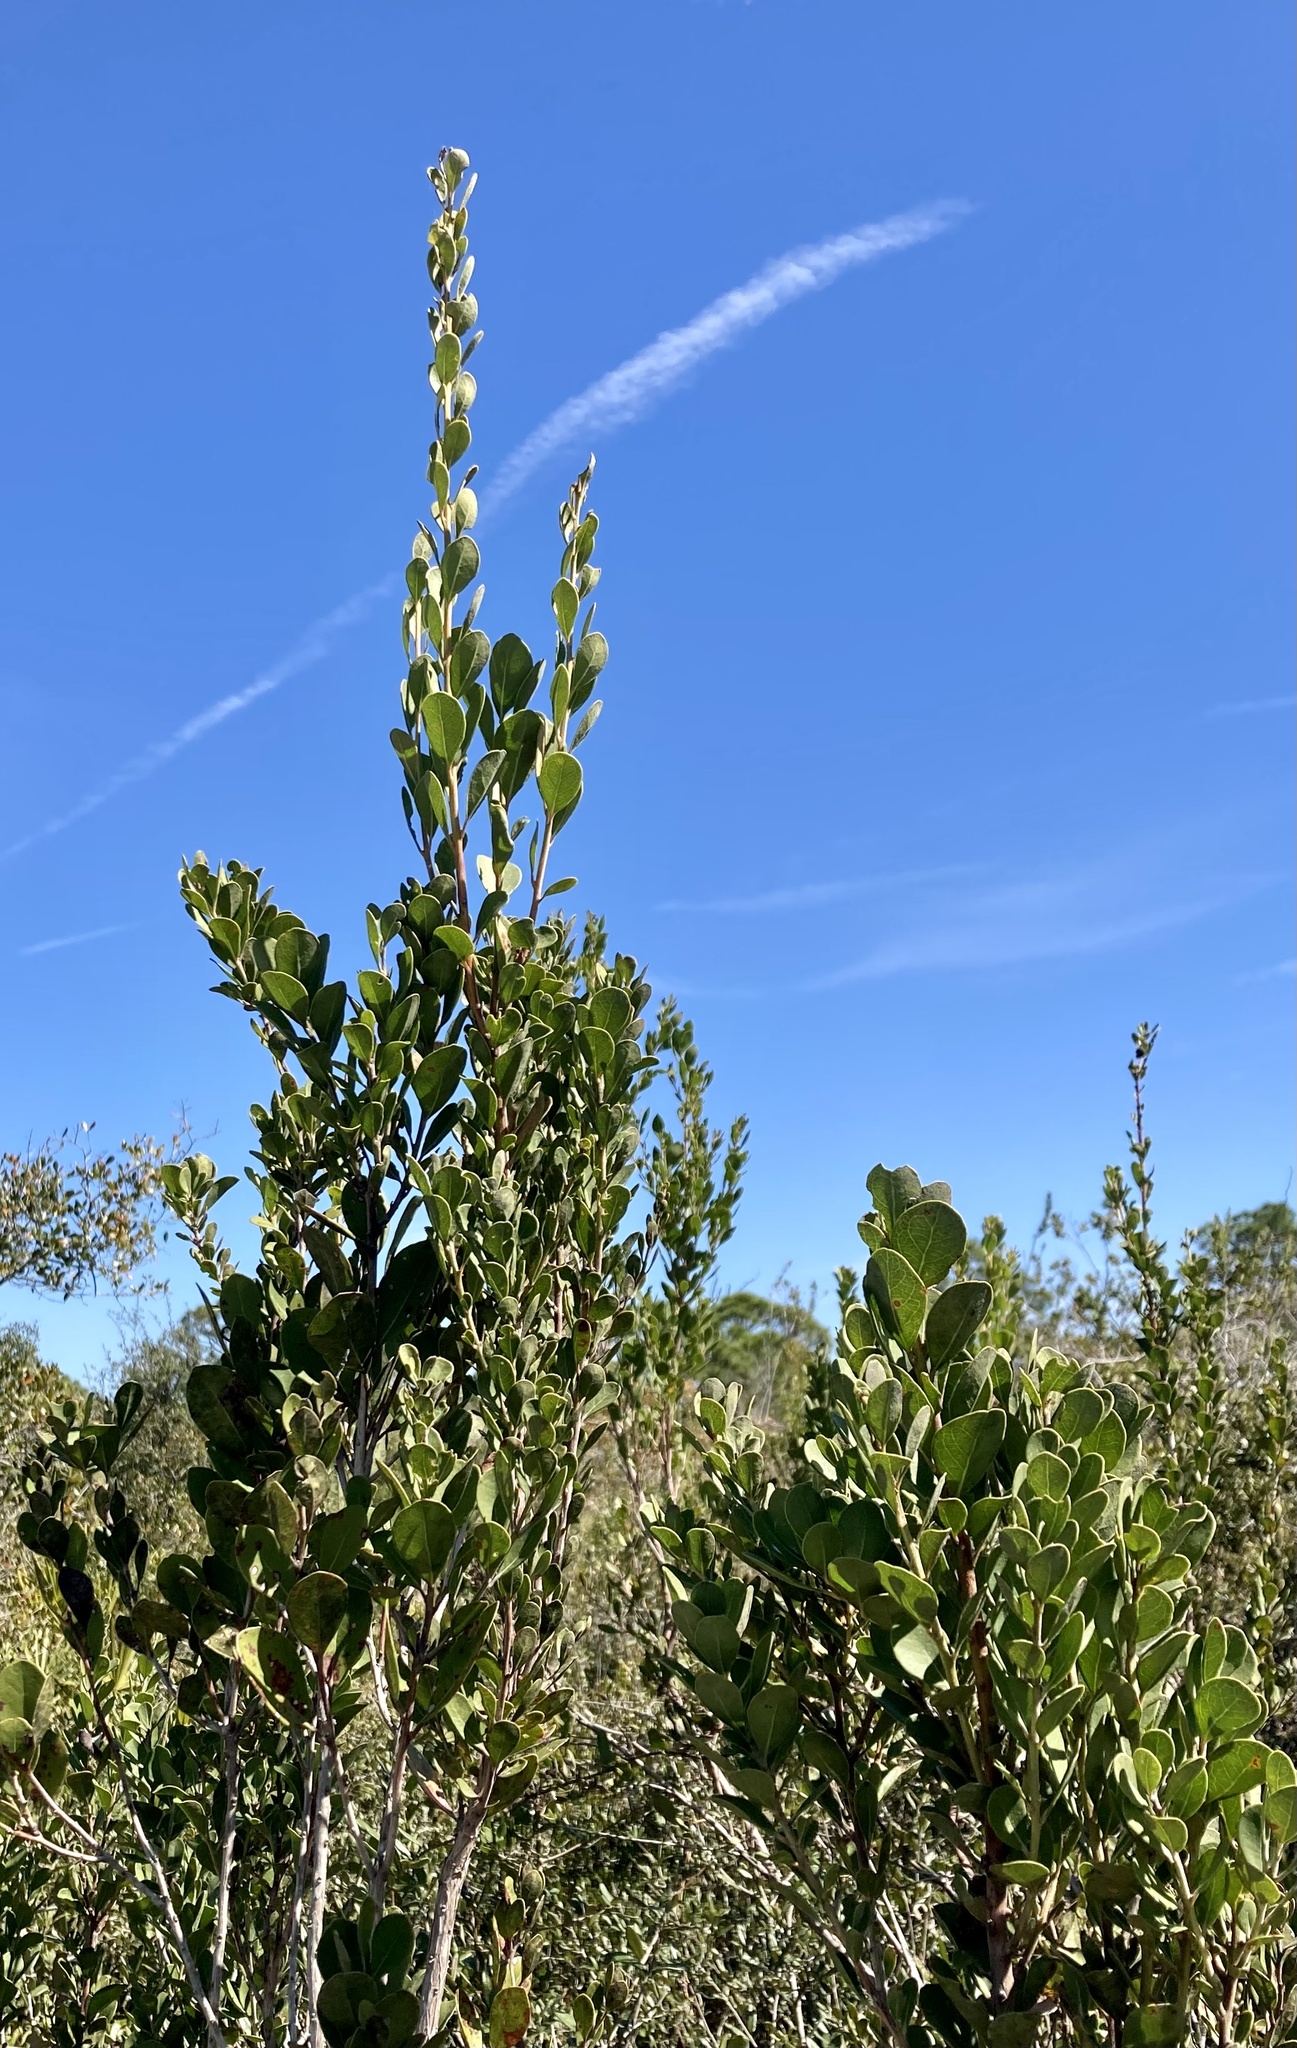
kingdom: Plantae
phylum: Tracheophyta
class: Magnoliopsida
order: Ericales
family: Ericaceae
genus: Lyonia
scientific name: Lyonia fruticosa
